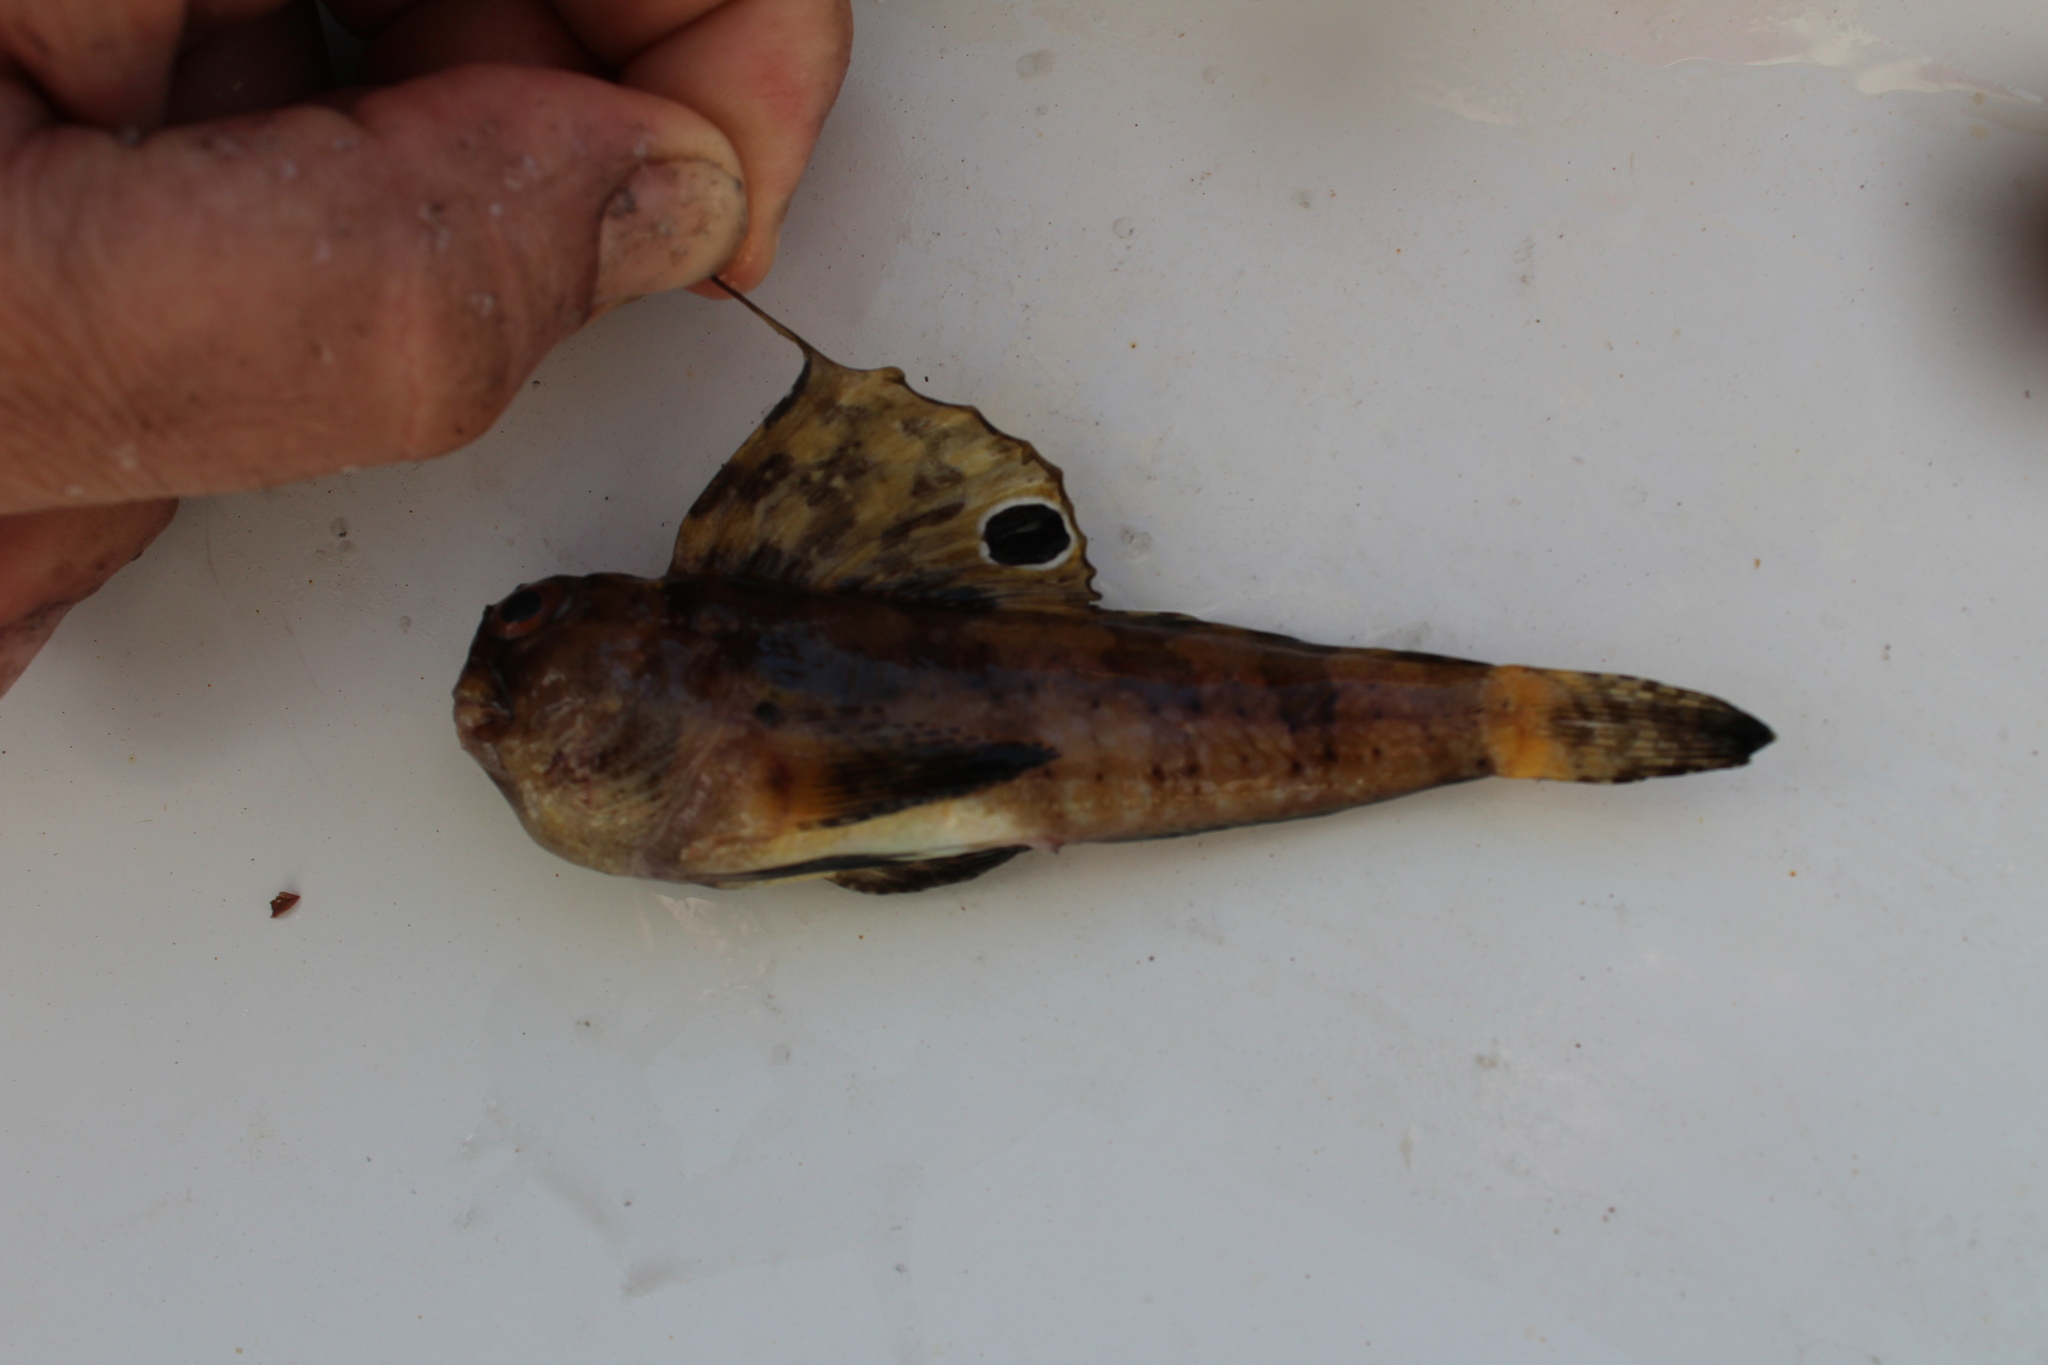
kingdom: Animalia
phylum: Chordata
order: Perciformes
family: Blenniidae
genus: Blennius
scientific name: Blennius ocellaris
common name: Butterfly blenny
